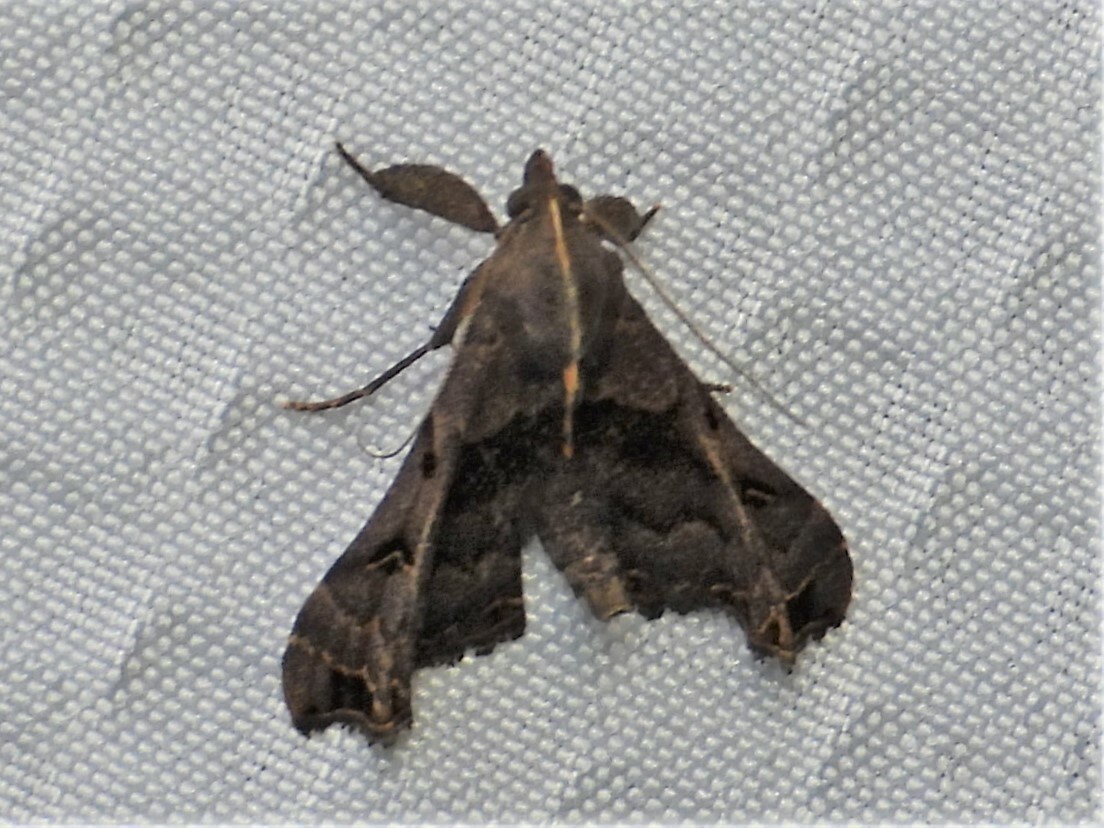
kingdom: Animalia
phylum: Arthropoda
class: Insecta
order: Lepidoptera
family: Erebidae
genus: Palthis
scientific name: Palthis asopialis
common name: Faint-spotted palthis moth
